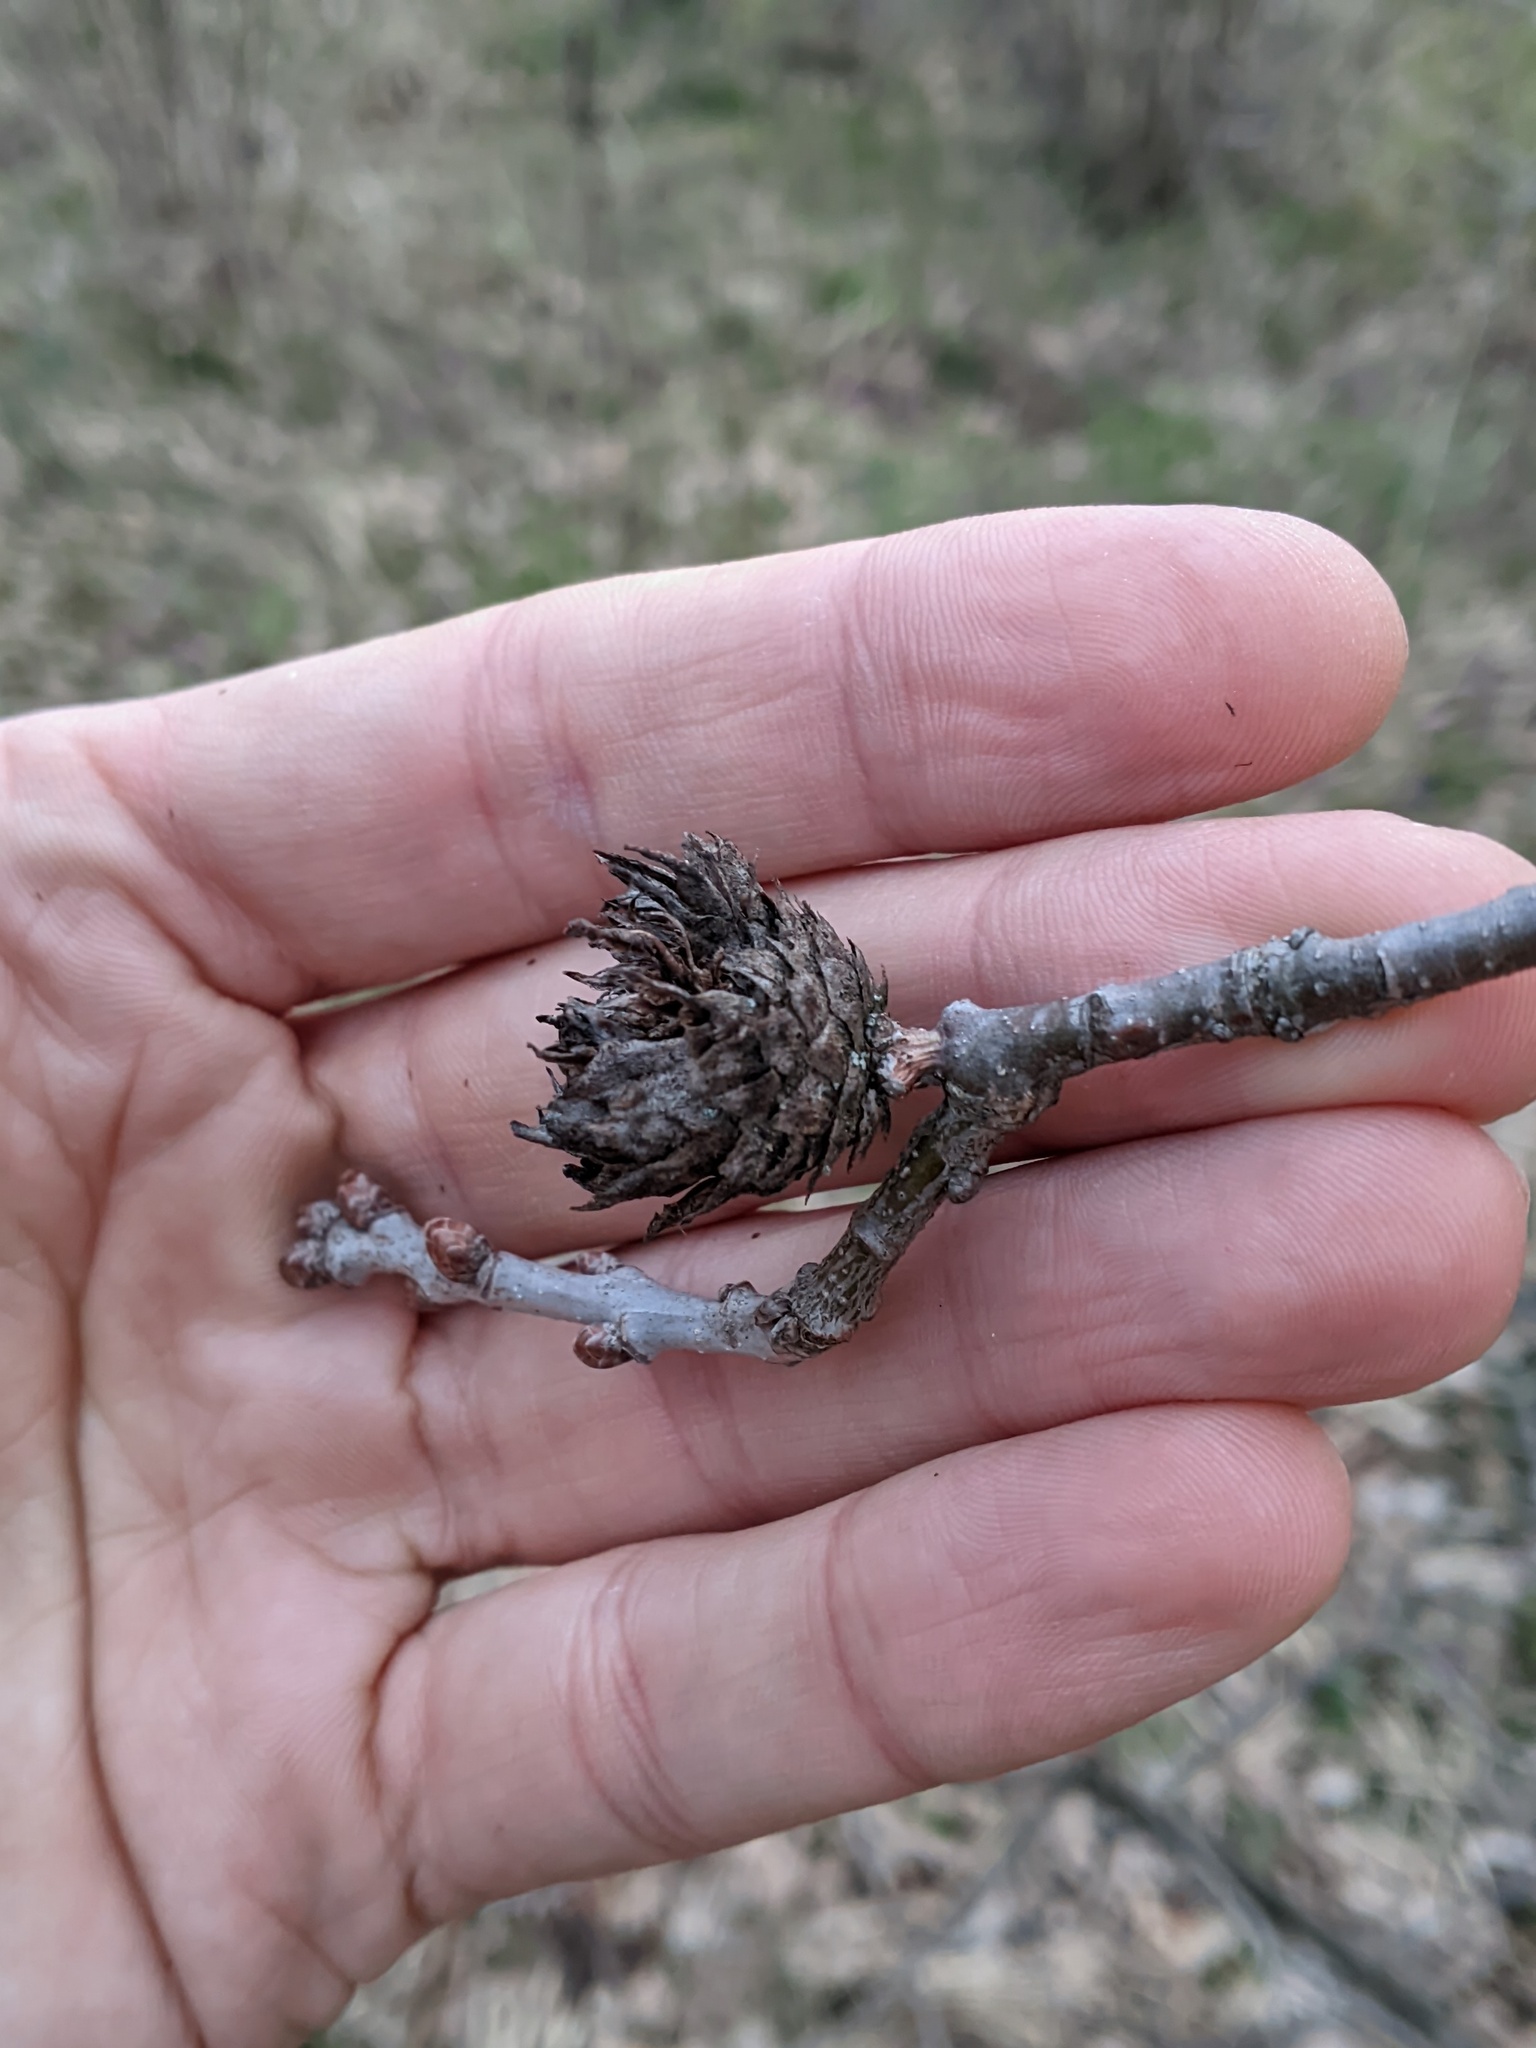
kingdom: Animalia
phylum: Arthropoda
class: Insecta
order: Hymenoptera
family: Cynipidae
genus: Andricus
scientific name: Andricus foecundatrix
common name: Artichoke gall
